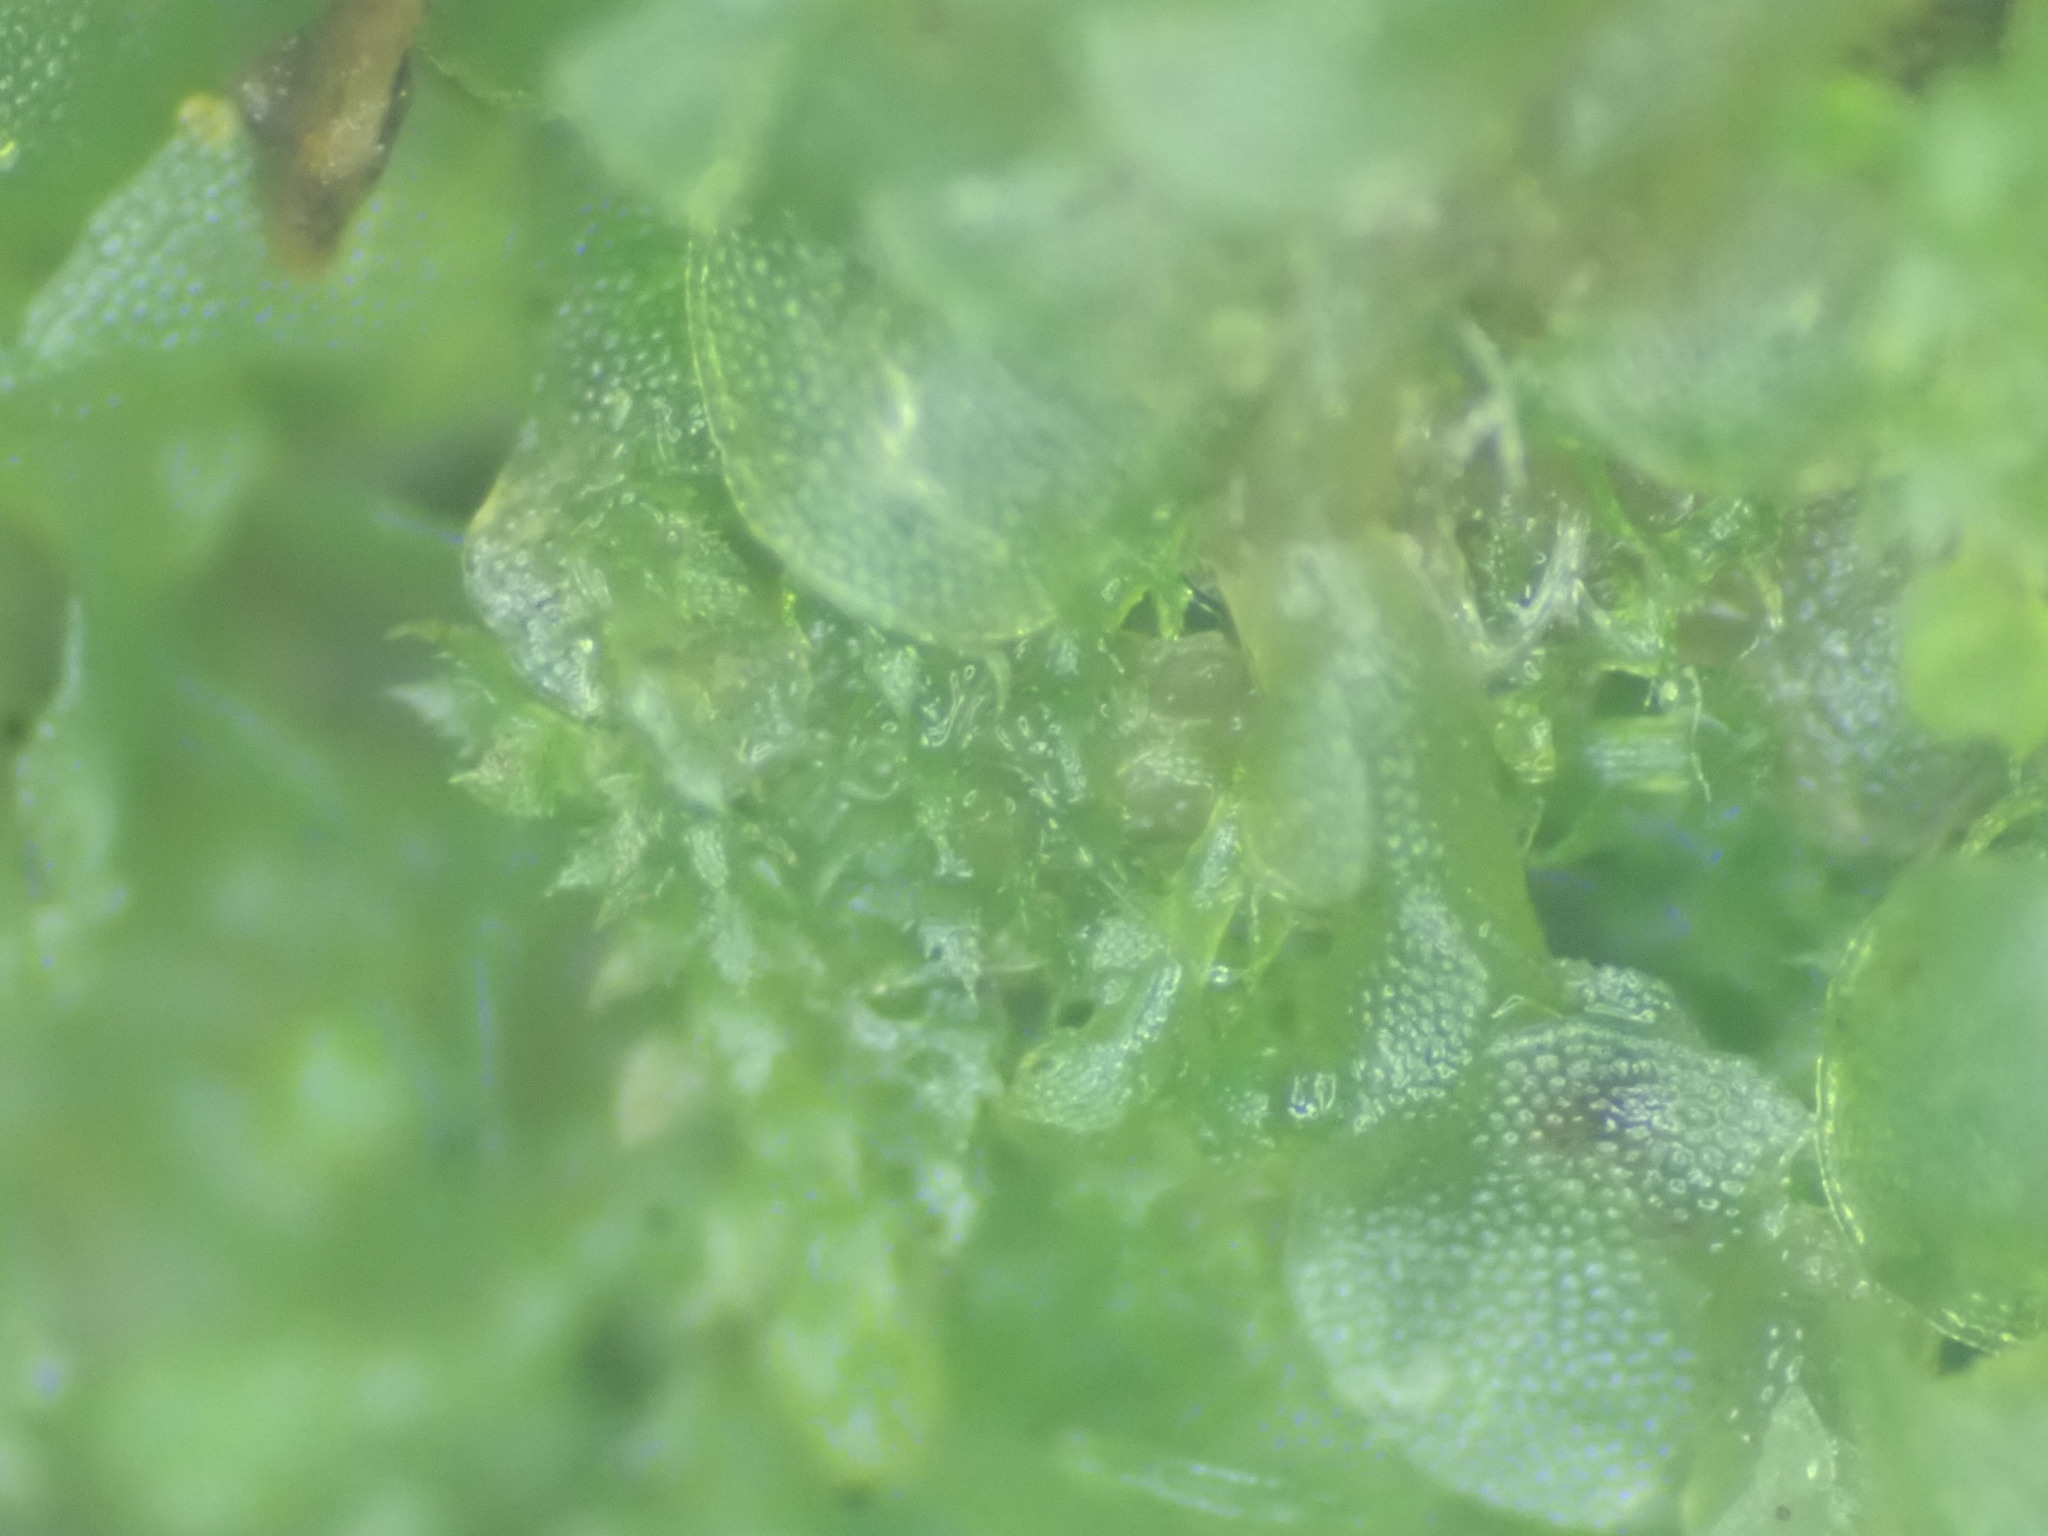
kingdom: Plantae
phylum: Marchantiophyta
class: Jungermanniopsida
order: Jungermanniales
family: Cephaloziellaceae
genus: Cephaloziella
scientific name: Cephaloziella turneri
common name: Turner's threadwort
